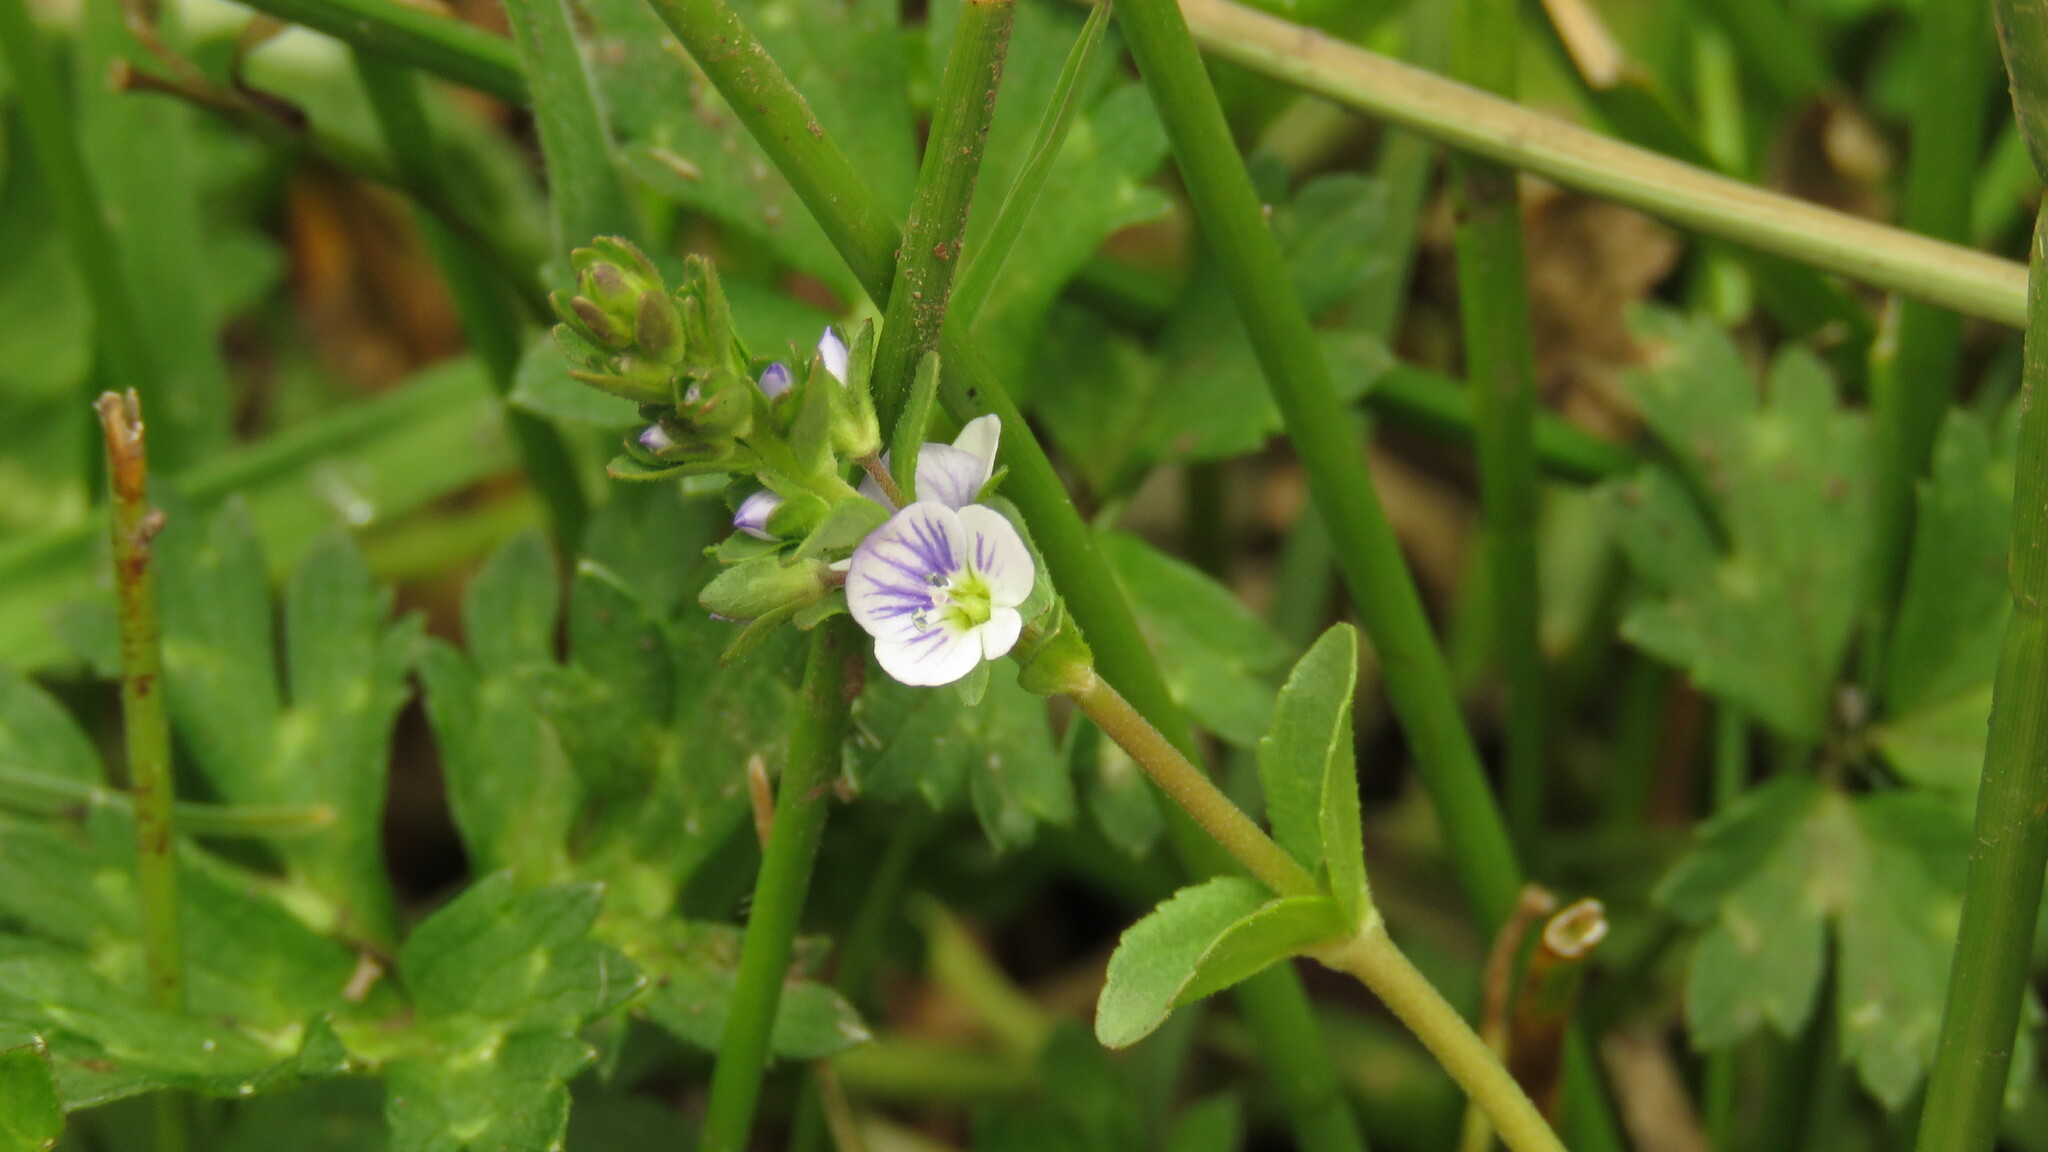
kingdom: Plantae
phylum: Tracheophyta
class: Magnoliopsida
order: Lamiales
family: Plantaginaceae
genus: Veronica
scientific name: Veronica serpyllifolia
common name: Thyme-leaved speedwell
